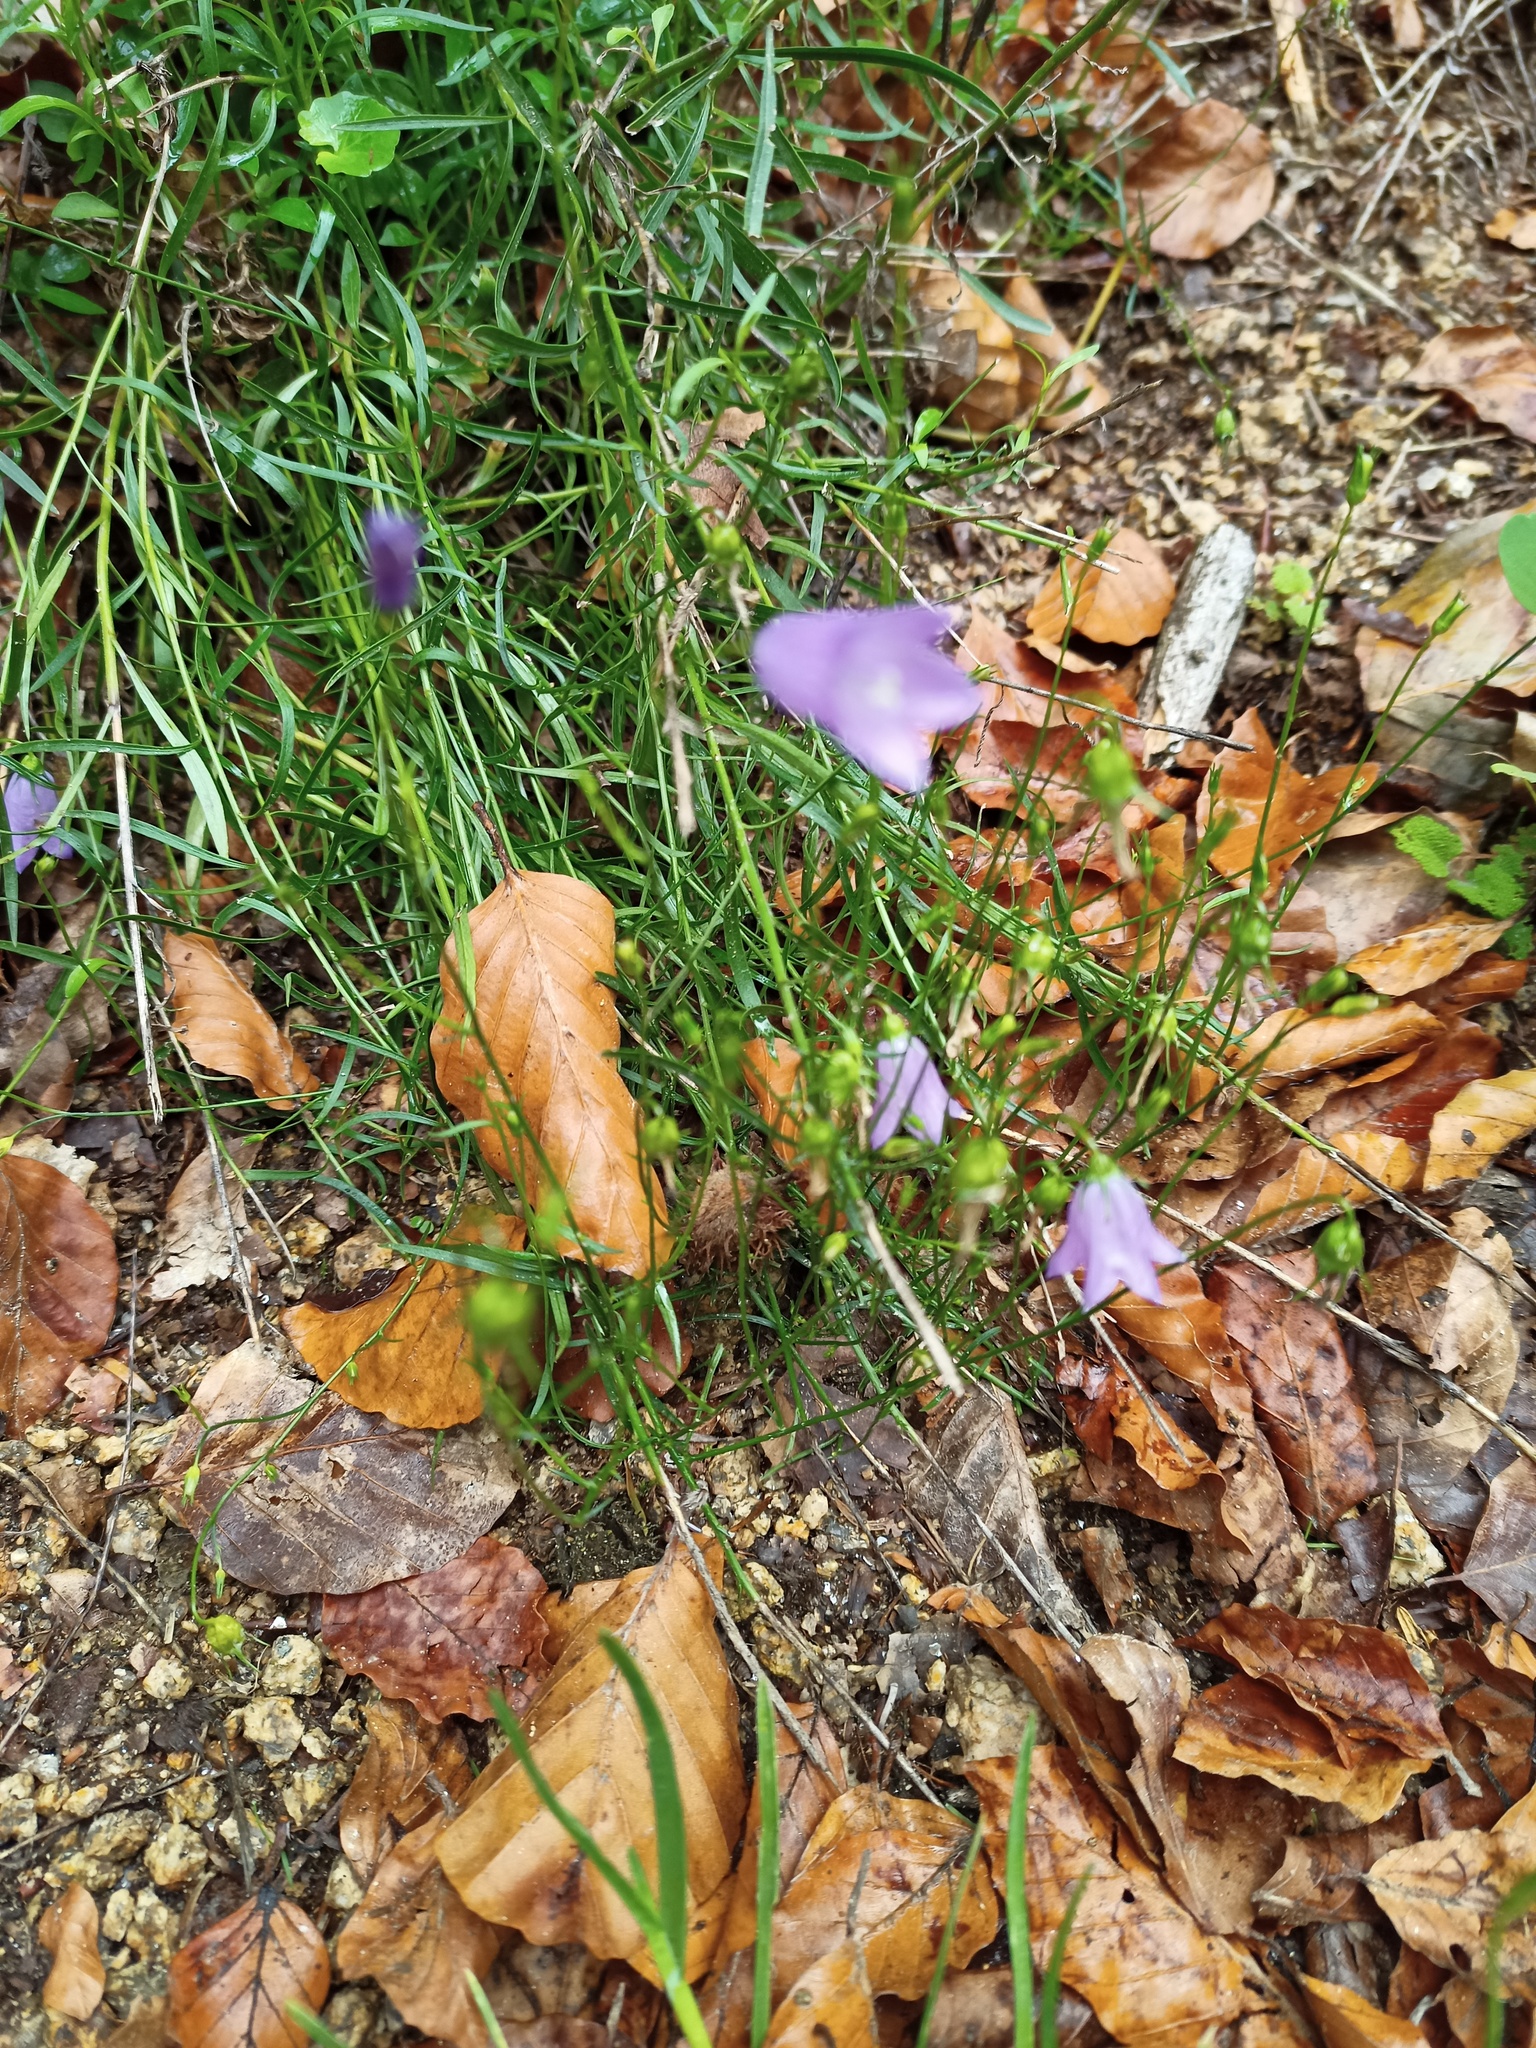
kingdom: Plantae
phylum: Tracheophyta
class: Magnoliopsida
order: Asterales
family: Campanulaceae
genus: Campanula
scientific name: Campanula rotundifolia
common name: Harebell
